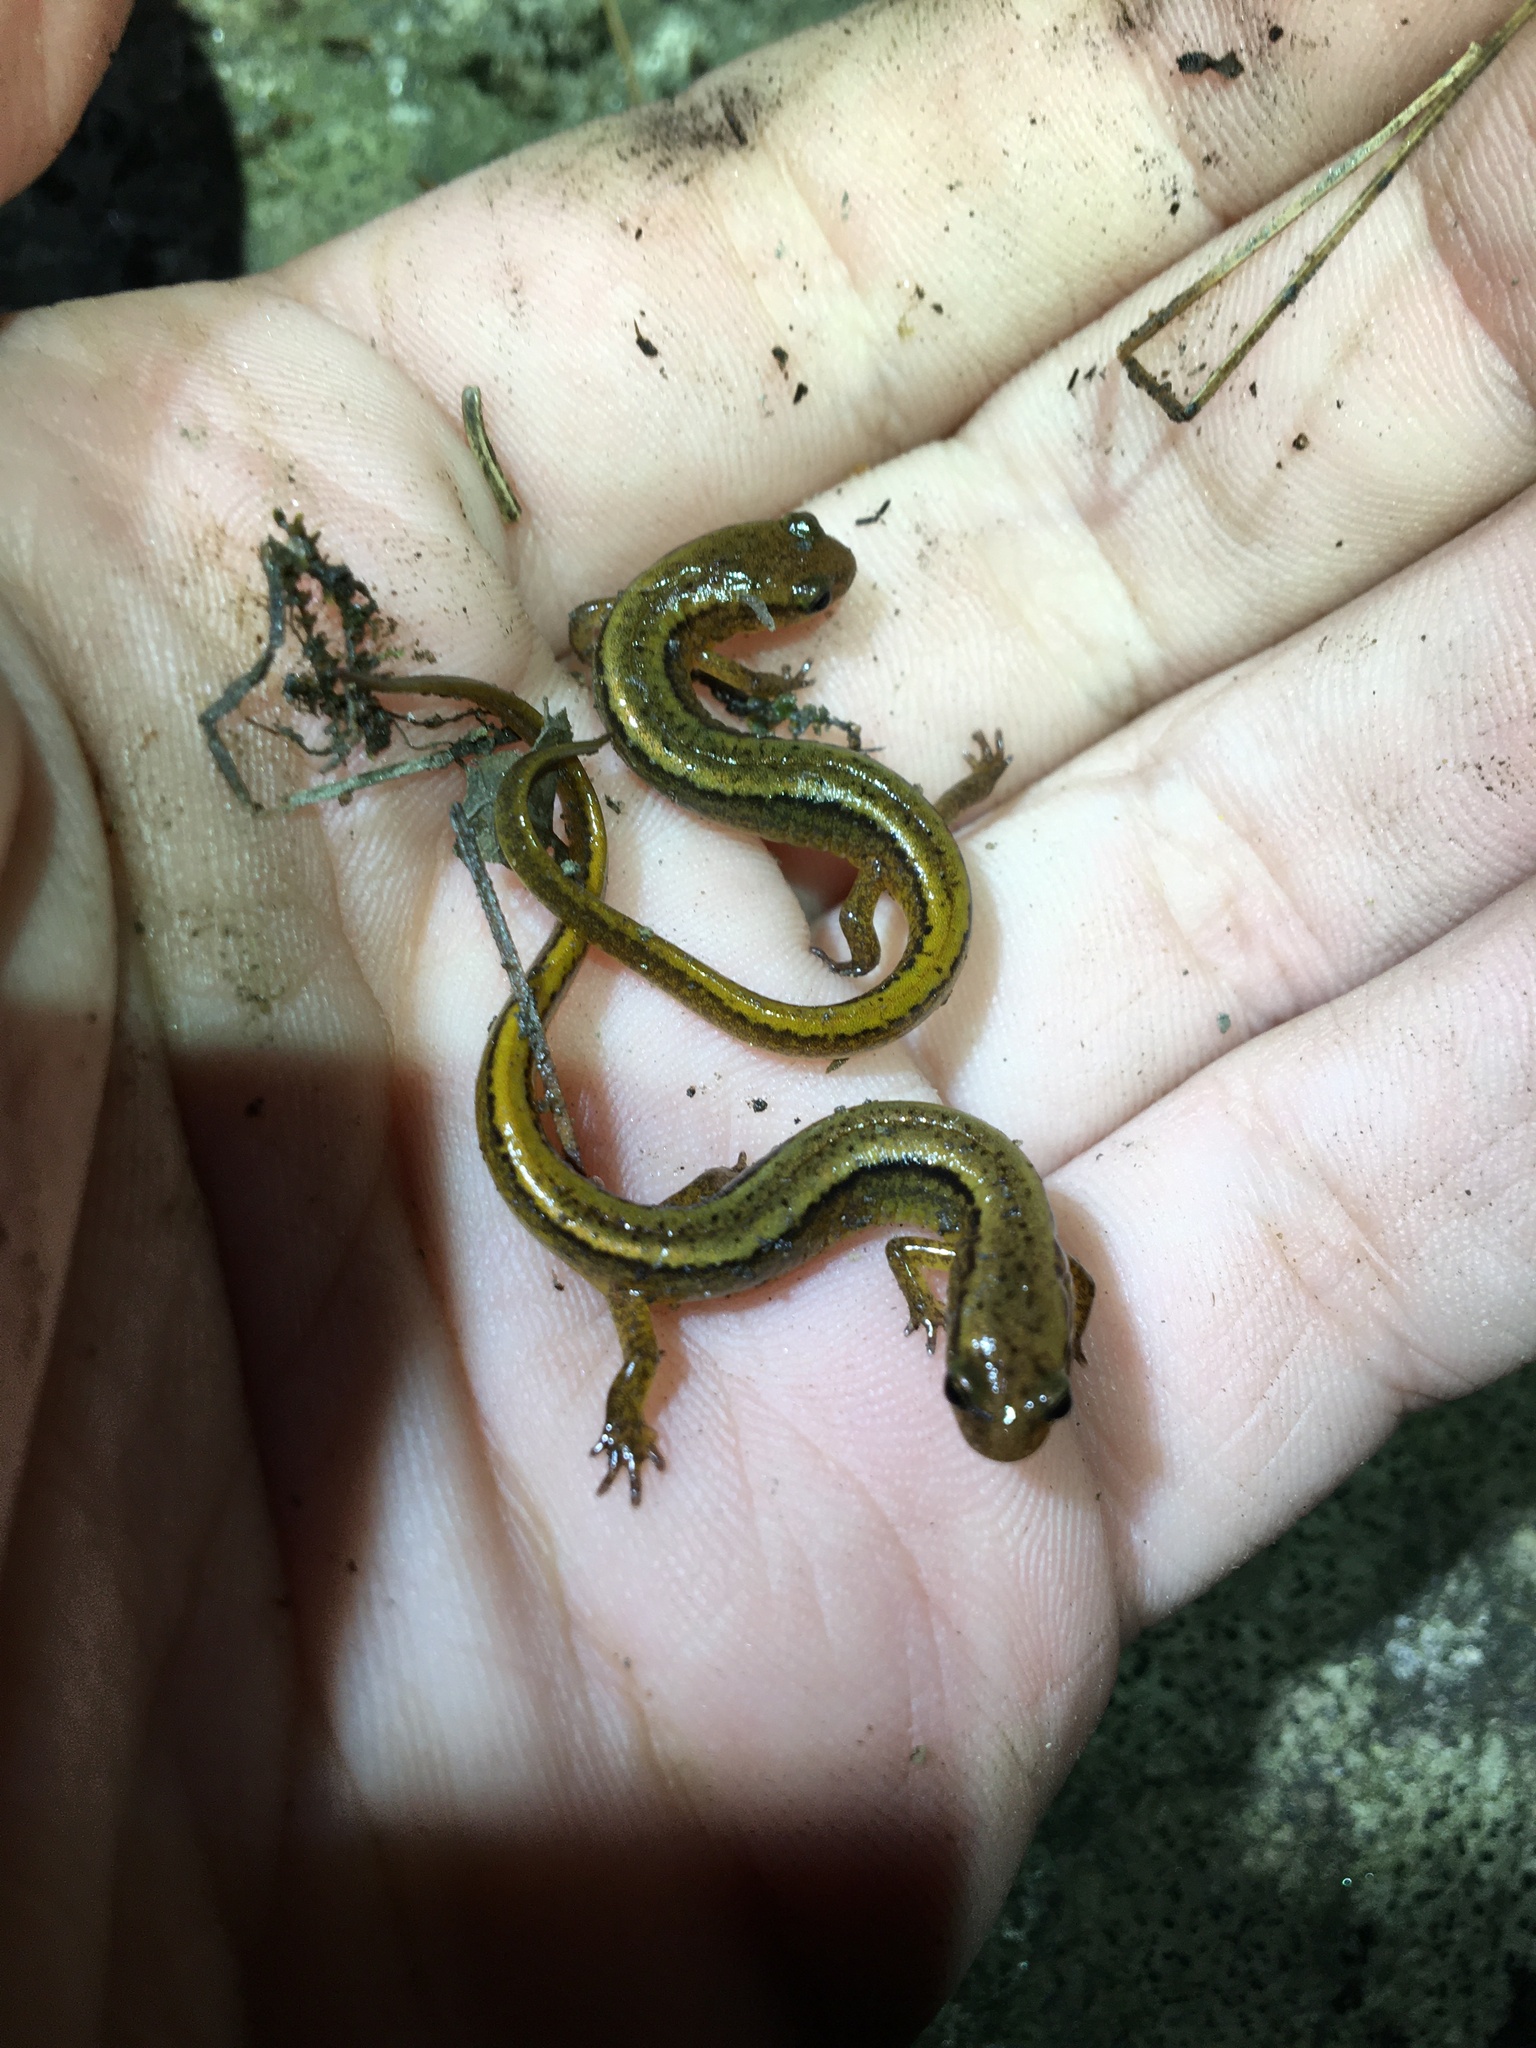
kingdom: Animalia
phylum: Chordata
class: Amphibia
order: Caudata
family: Plethodontidae
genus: Eurycea
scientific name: Eurycea bislineata
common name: Northern two-lined salamander
